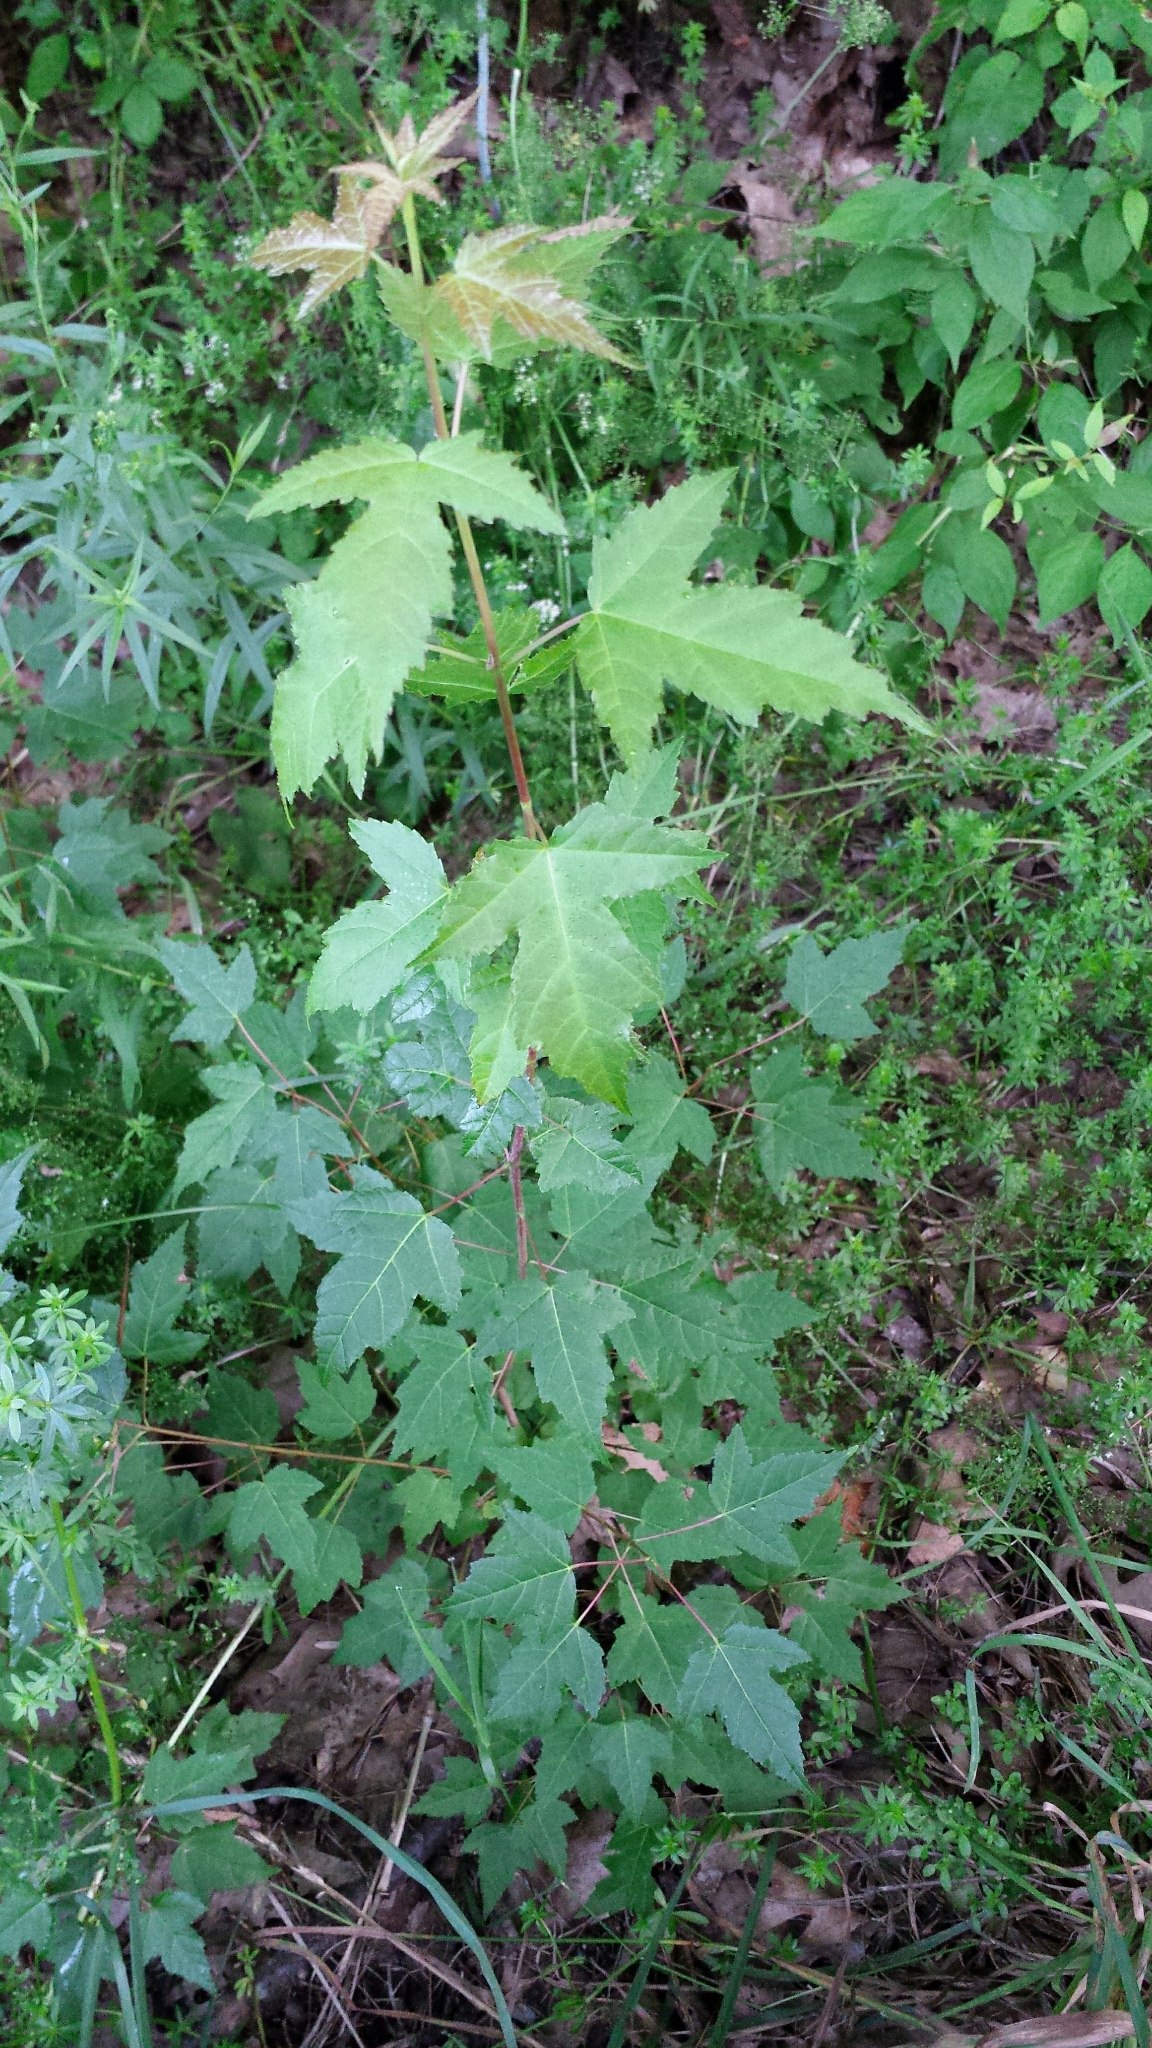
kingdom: Plantae
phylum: Tracheophyta
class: Magnoliopsida
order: Sapindales
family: Sapindaceae
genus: Acer
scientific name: Acer tataricum
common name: Tartar maple
